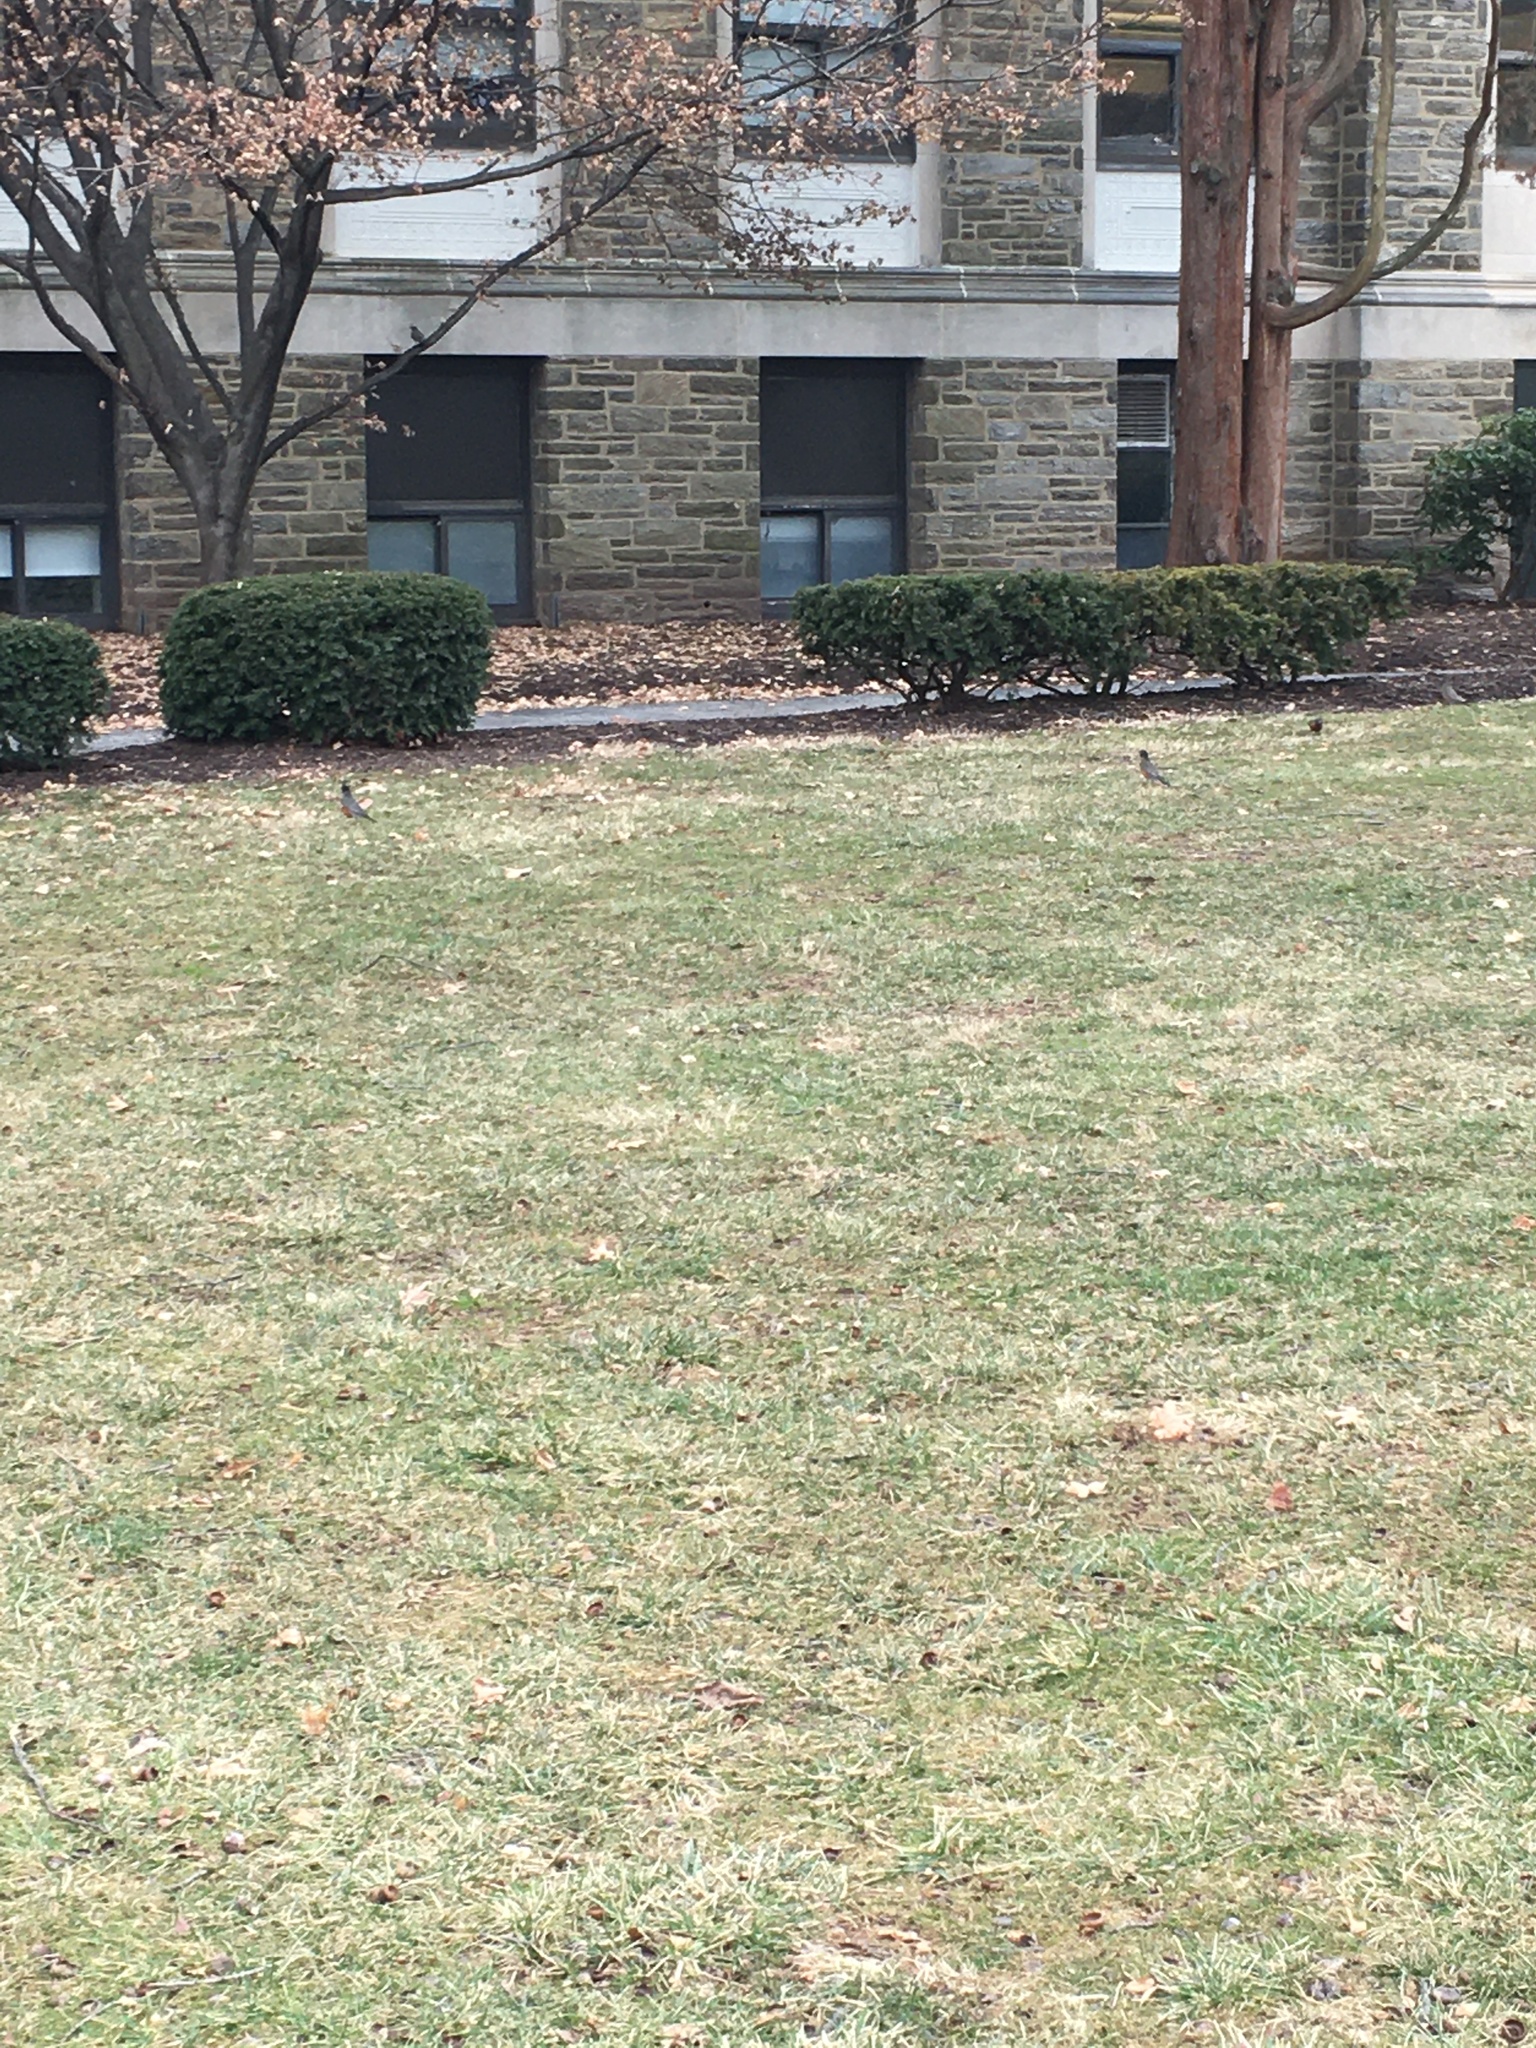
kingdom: Animalia
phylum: Chordata
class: Aves
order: Passeriformes
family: Turdidae
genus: Turdus
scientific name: Turdus migratorius
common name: American robin
